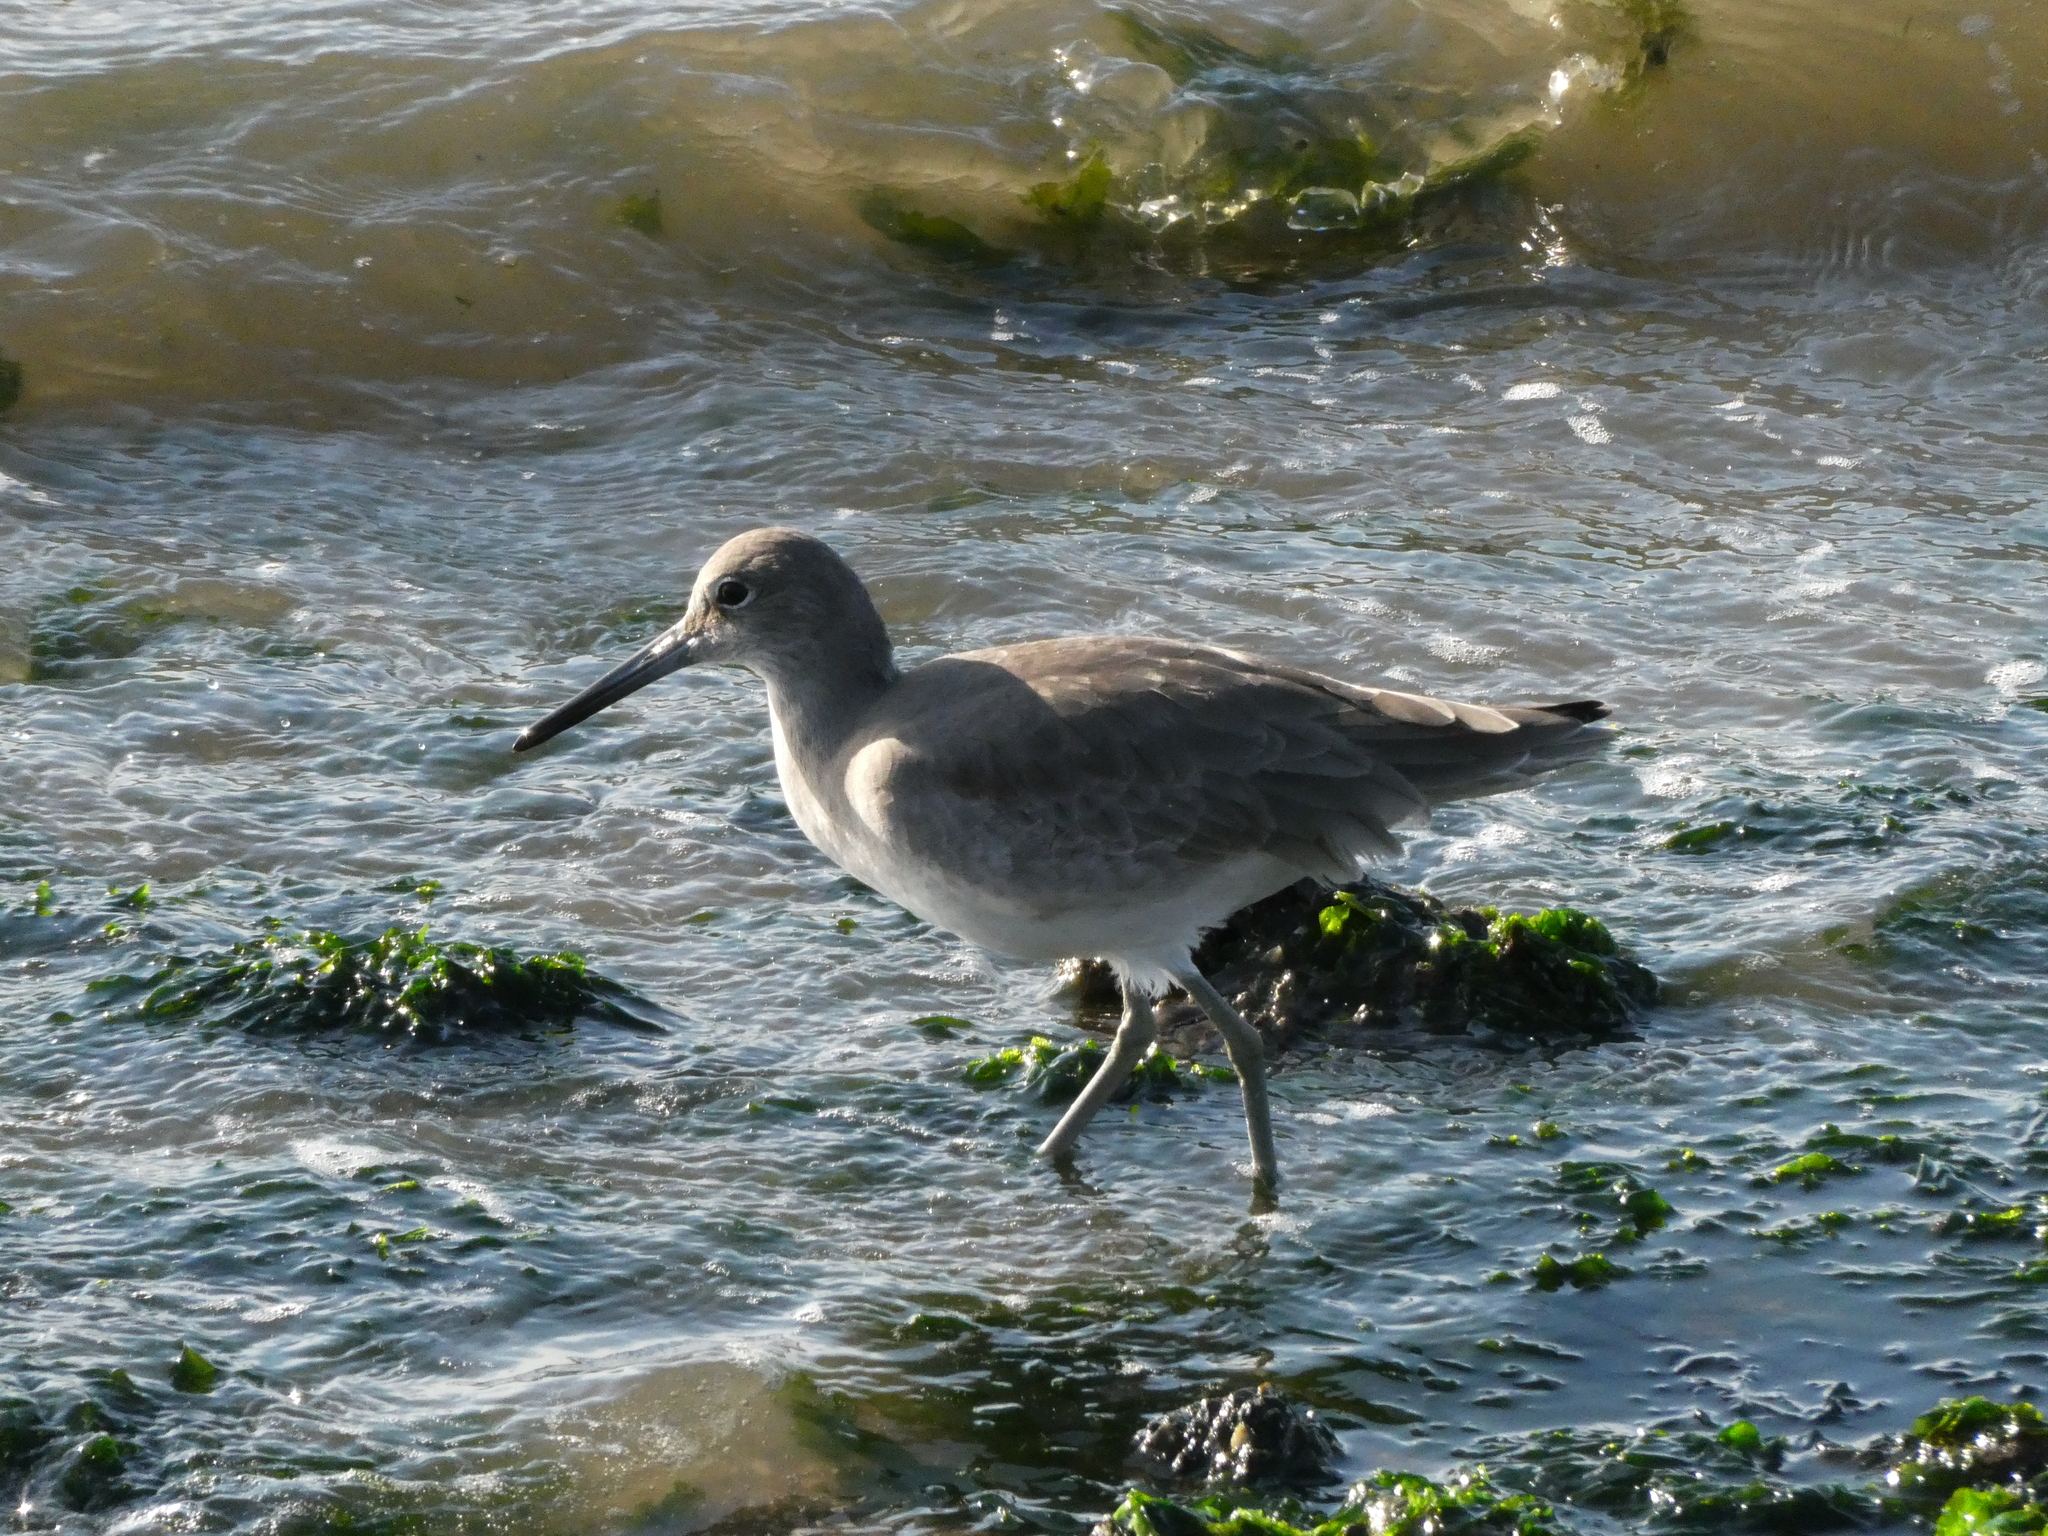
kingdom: Animalia
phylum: Chordata
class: Aves
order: Charadriiformes
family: Scolopacidae
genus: Tringa
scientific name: Tringa semipalmata
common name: Willet
